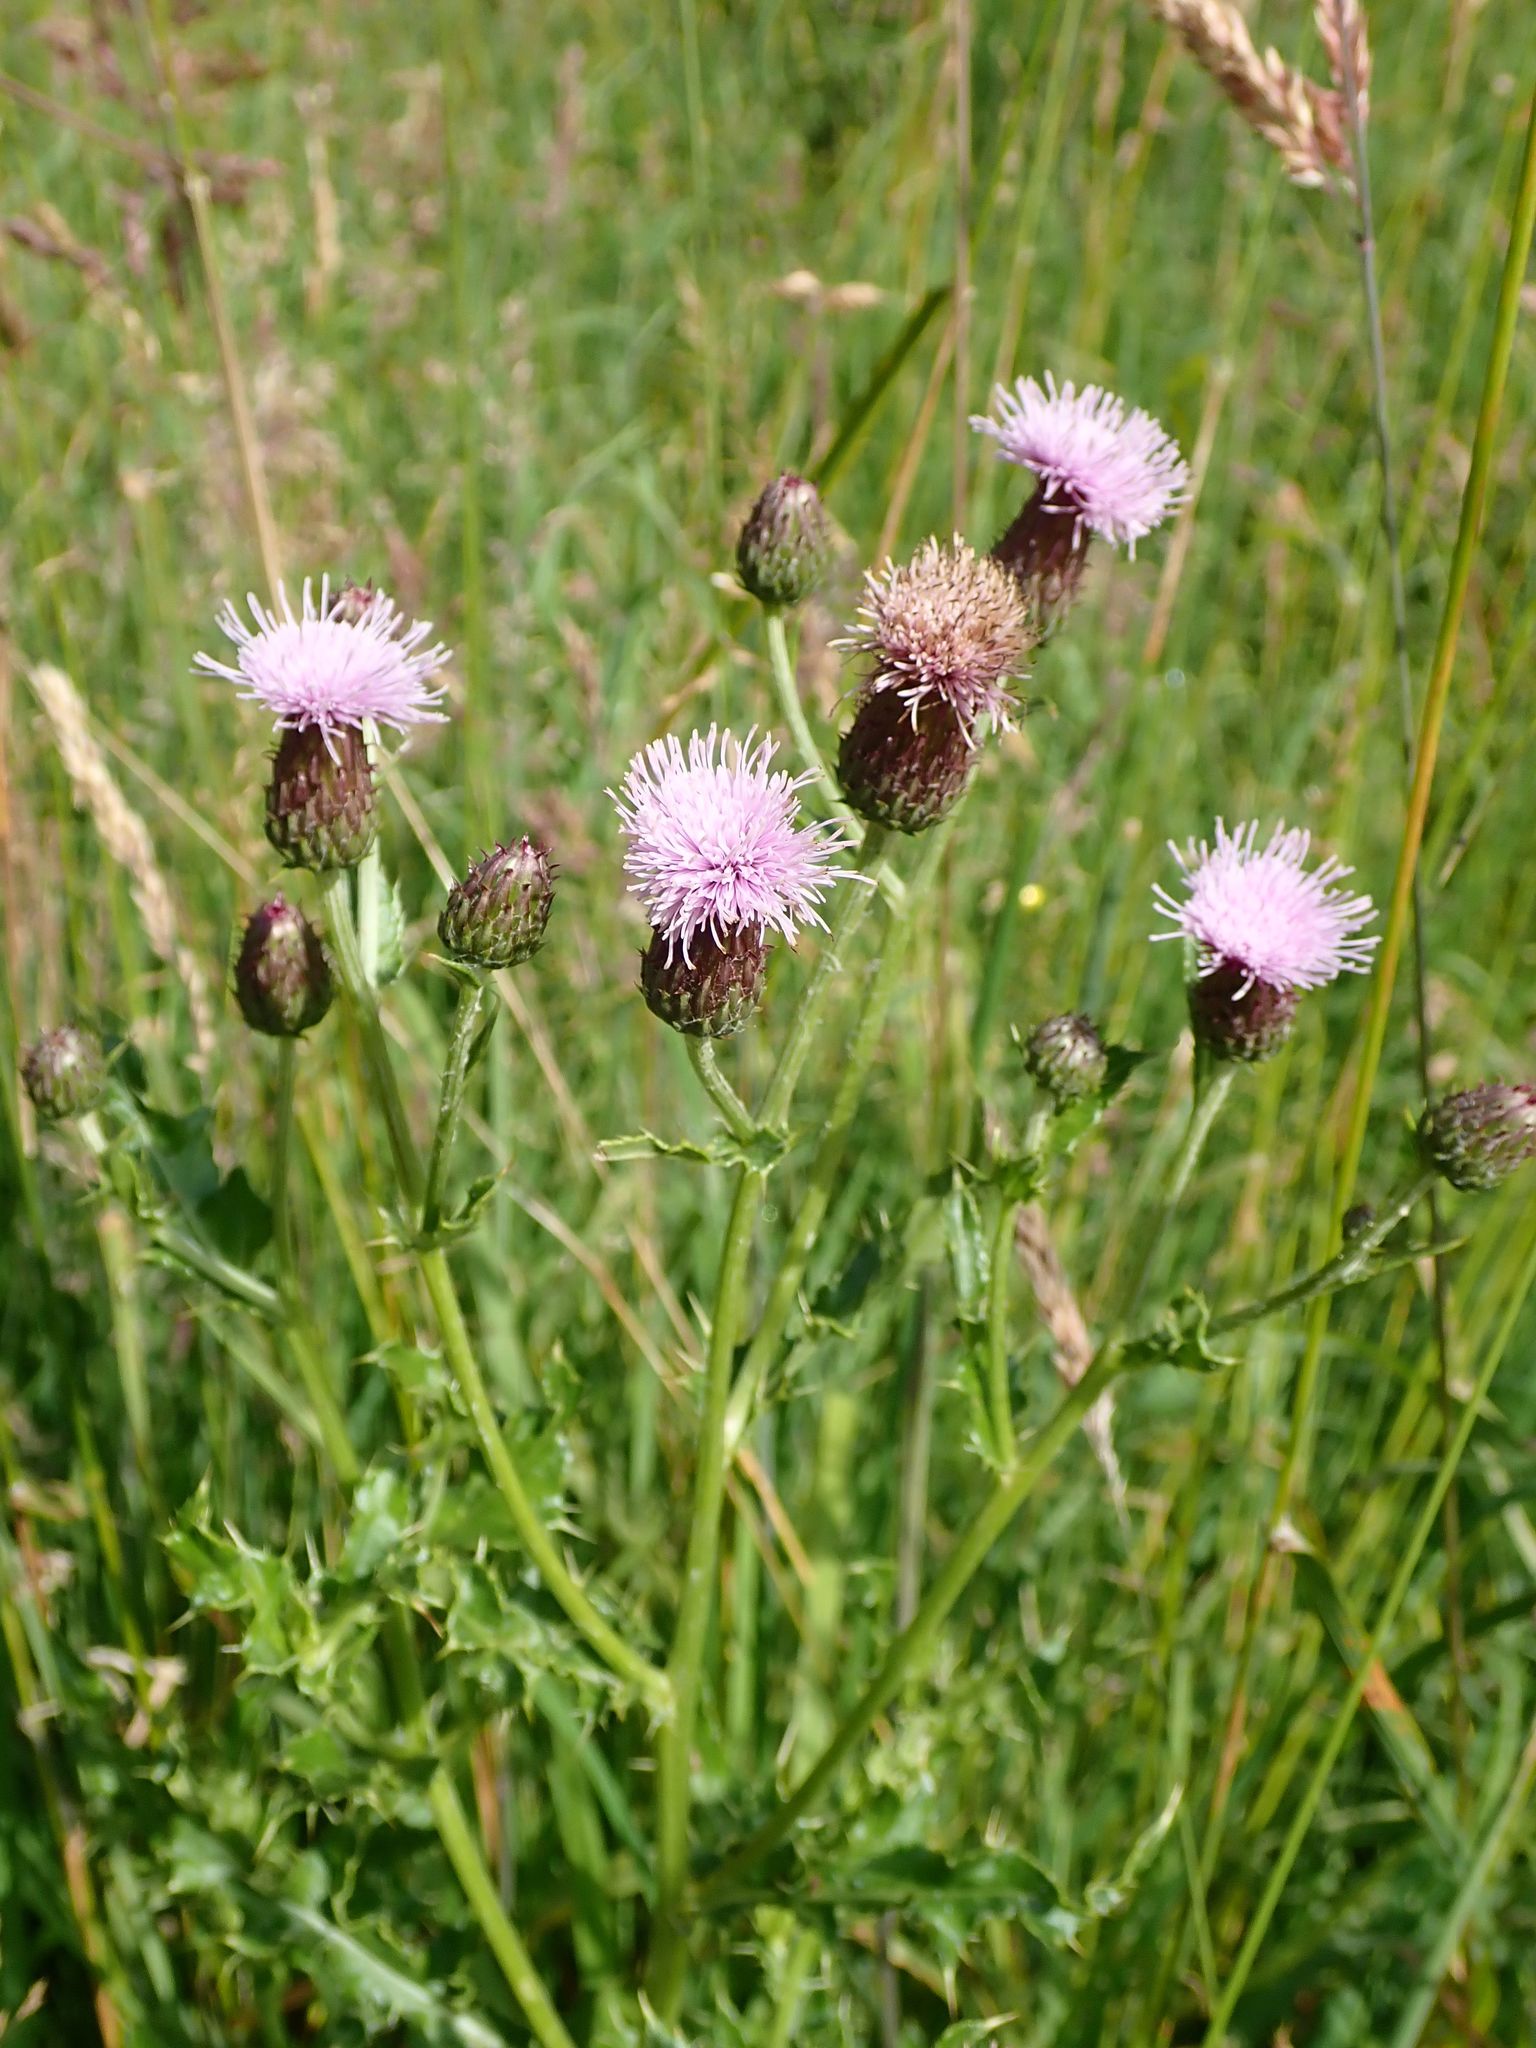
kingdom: Plantae
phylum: Tracheophyta
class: Magnoliopsida
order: Asterales
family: Asteraceae
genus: Cirsium
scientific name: Cirsium arvense
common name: Creeping thistle
